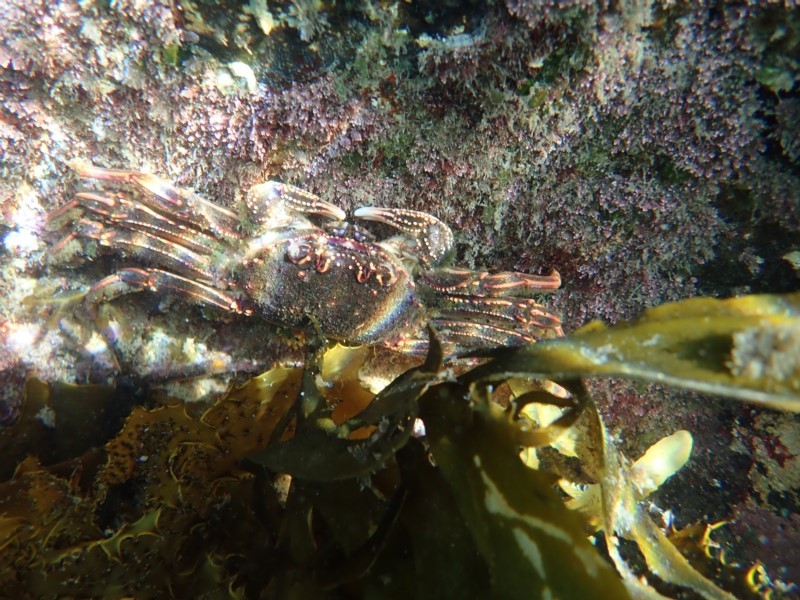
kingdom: Animalia
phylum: Arthropoda
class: Malacostraca
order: Decapoda
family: Plagusiidae
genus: Guinusia
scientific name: Guinusia chabrus
